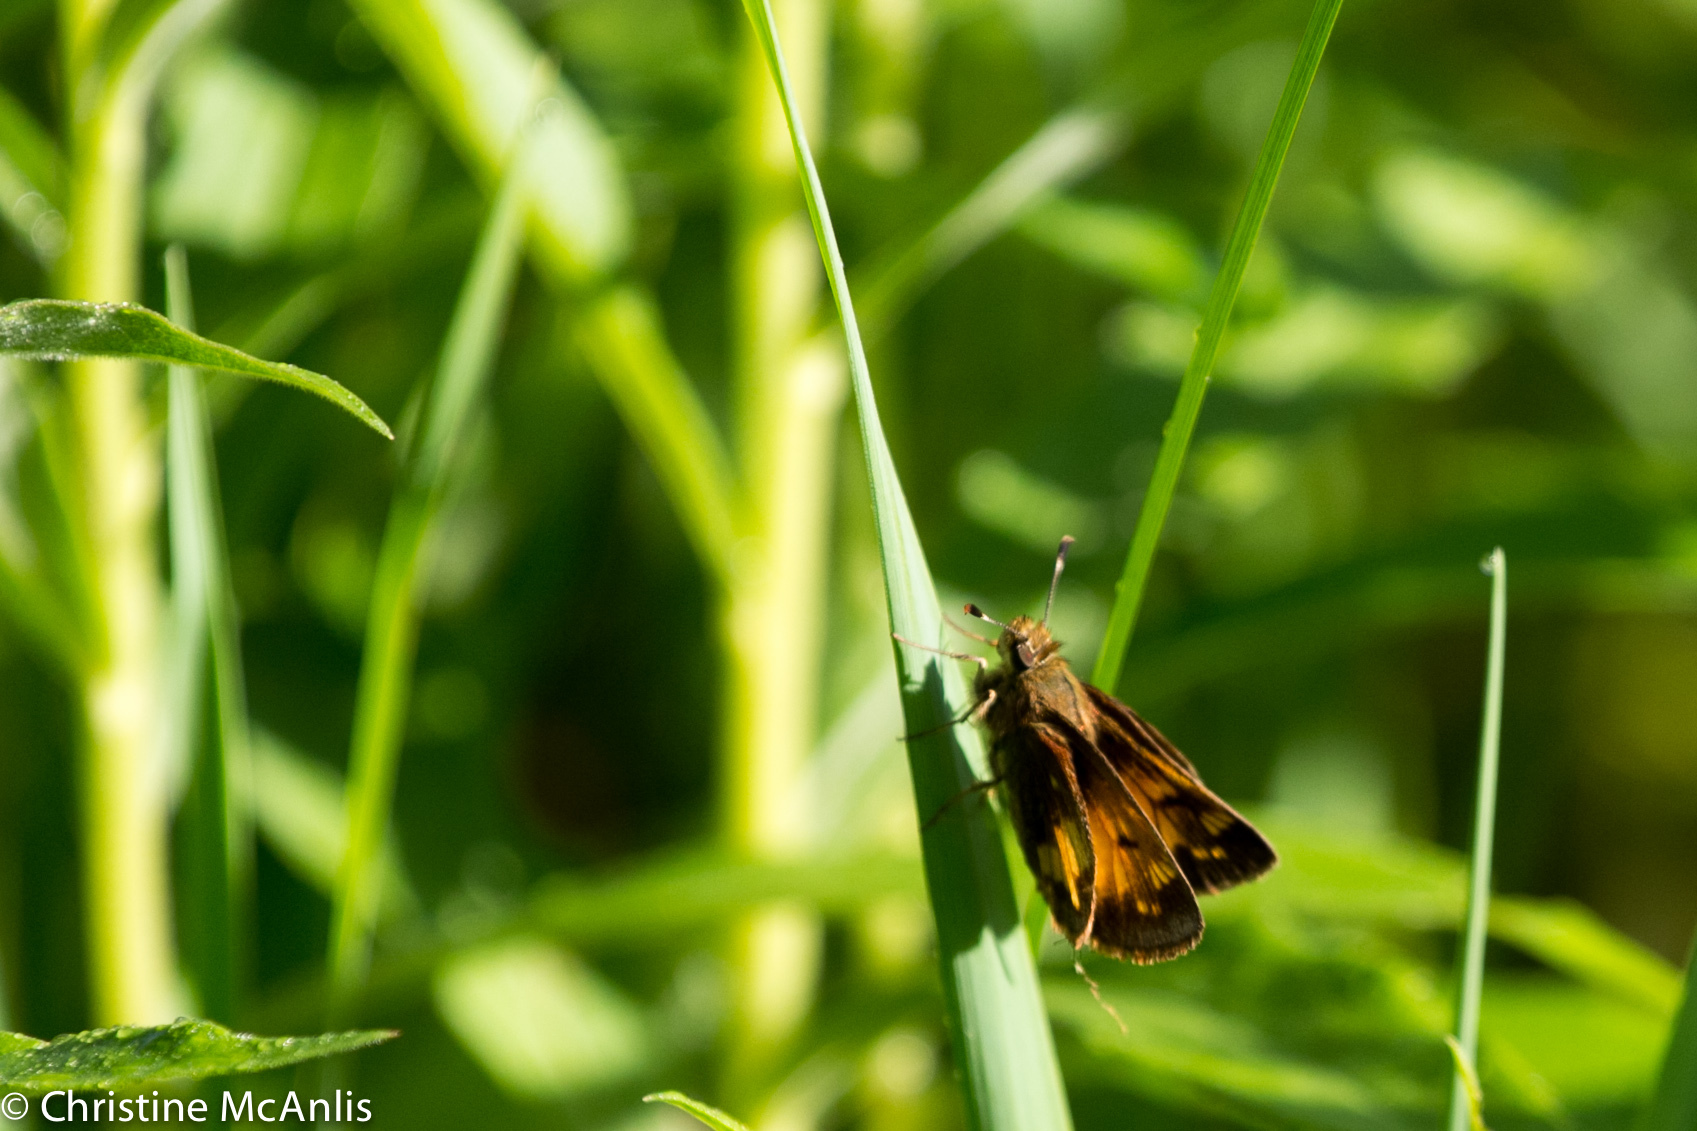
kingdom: Animalia
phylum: Arthropoda
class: Insecta
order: Lepidoptera
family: Hesperiidae
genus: Lon
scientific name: Lon hobomok
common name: Hobomok skipper
